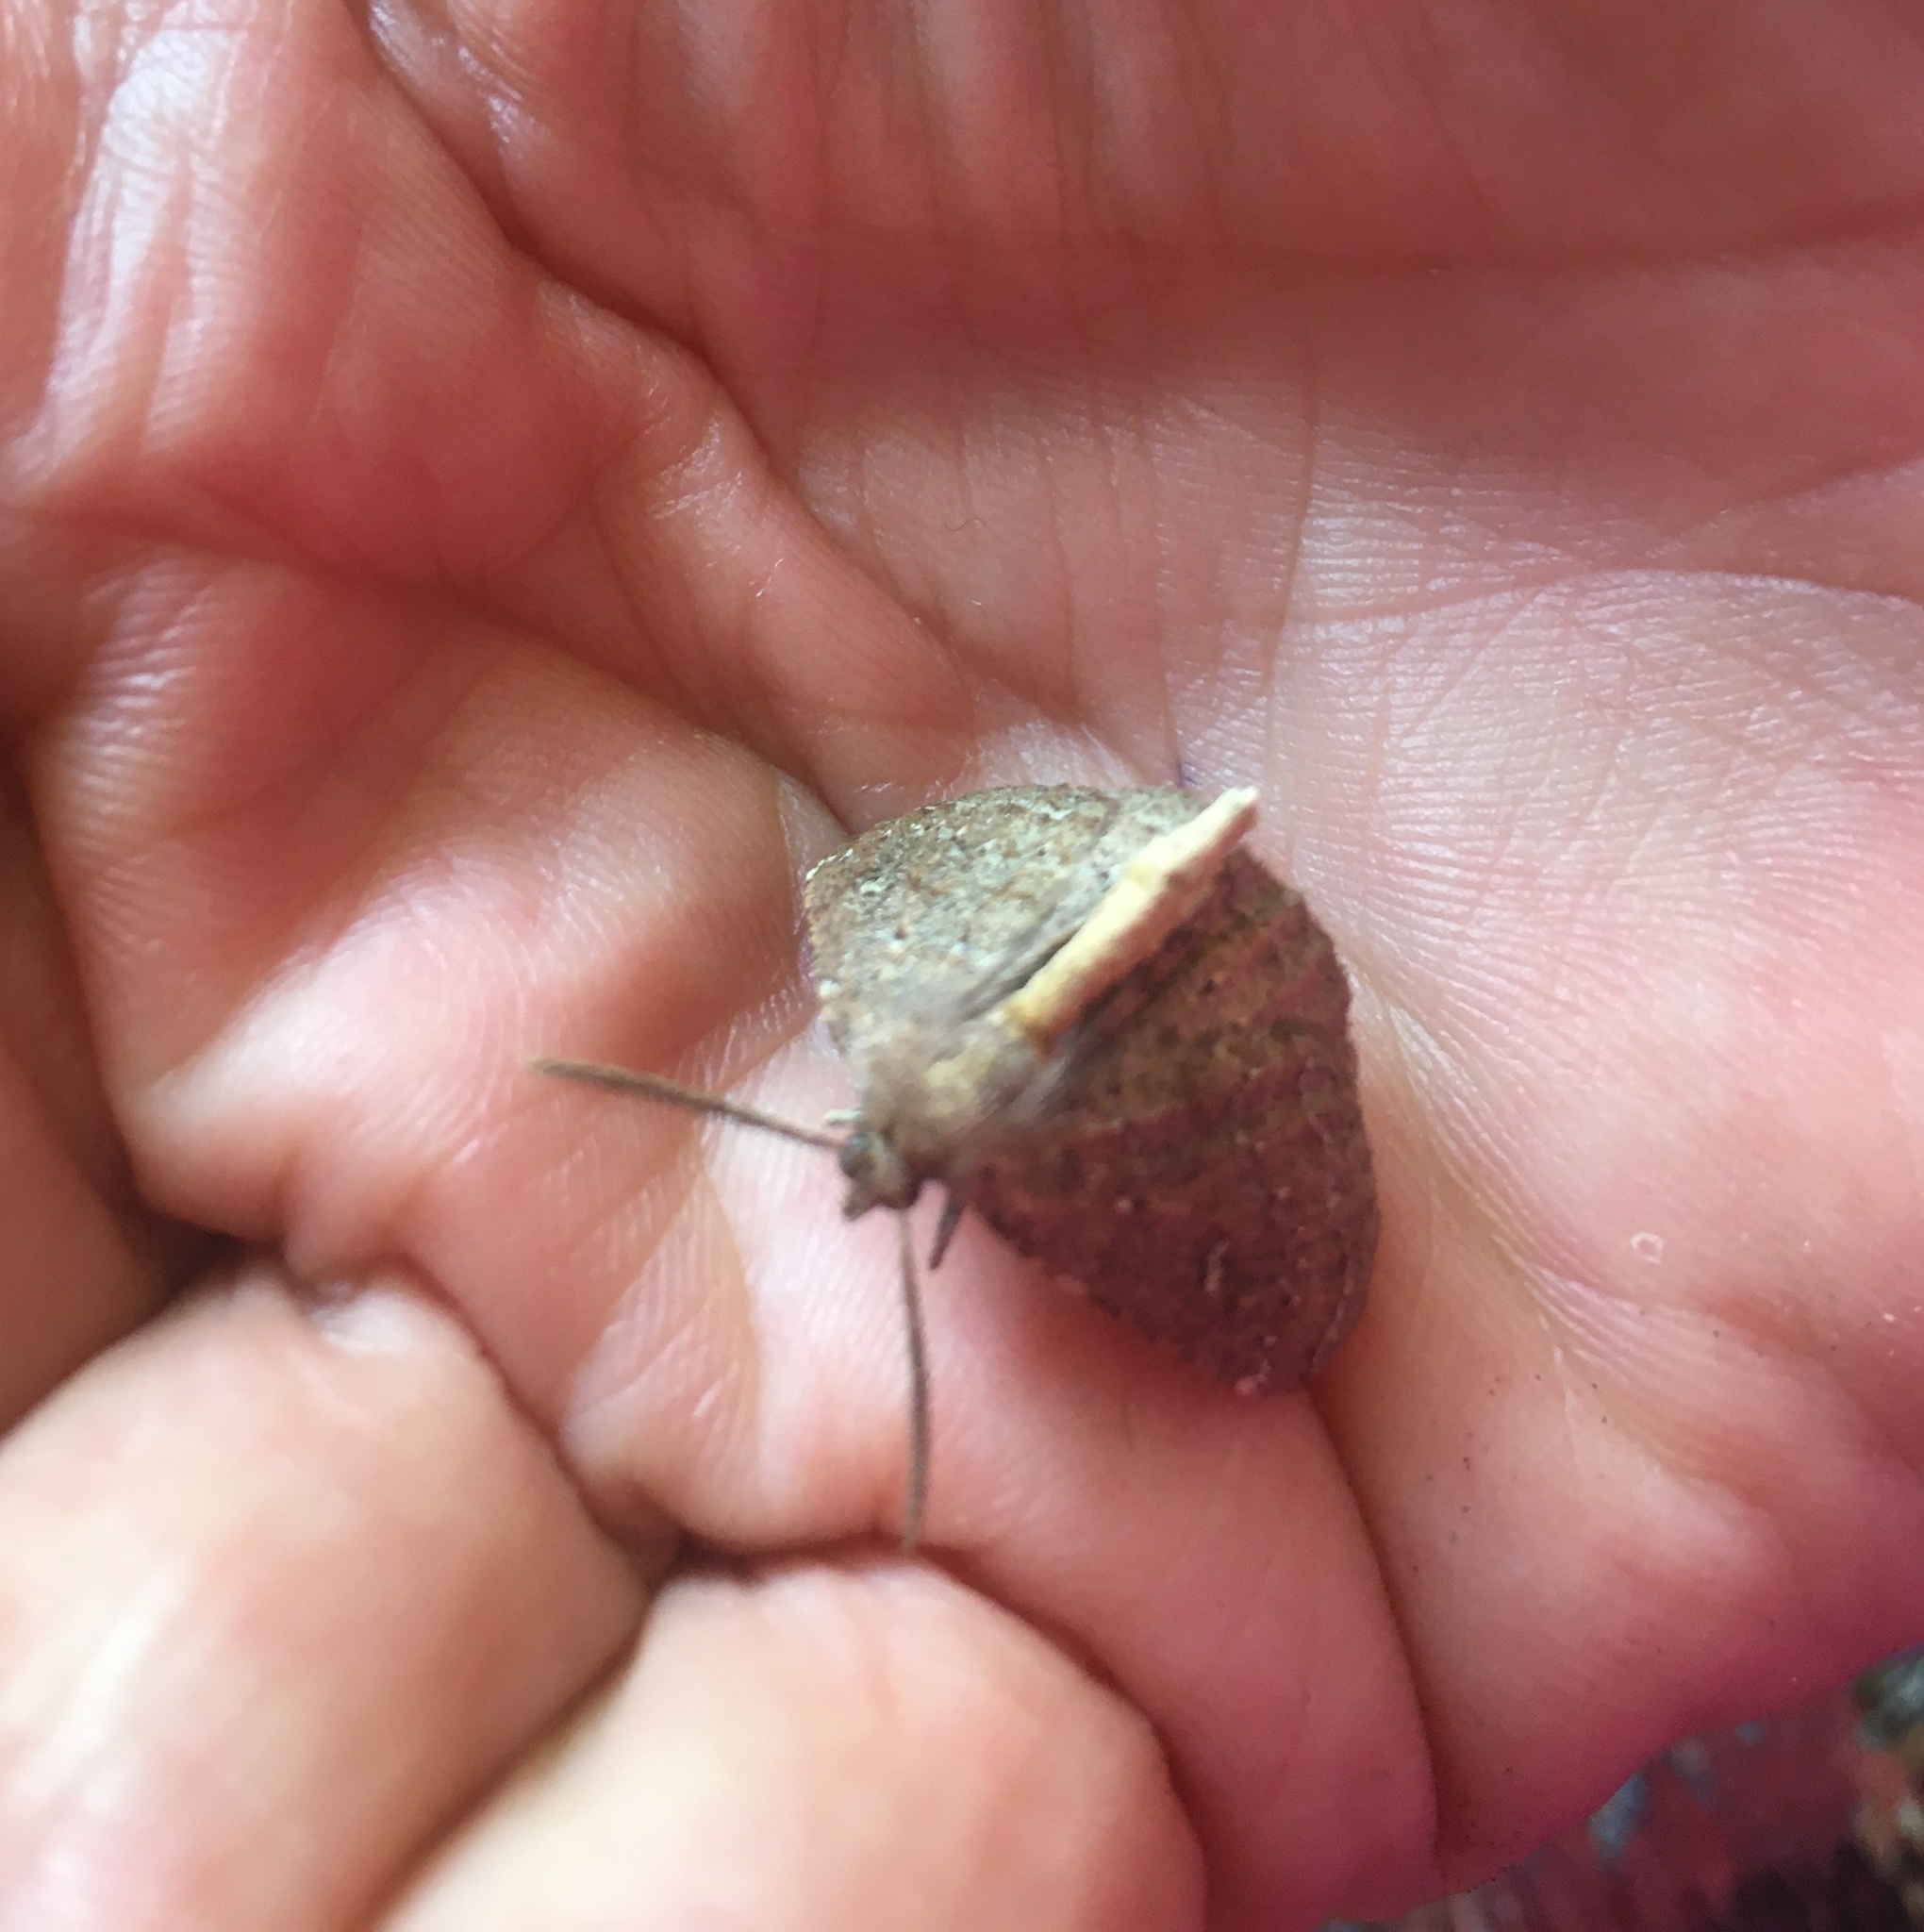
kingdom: Animalia
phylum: Arthropoda
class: Insecta
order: Lepidoptera
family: Geometridae
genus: Cleora
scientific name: Cleora scriptaria
